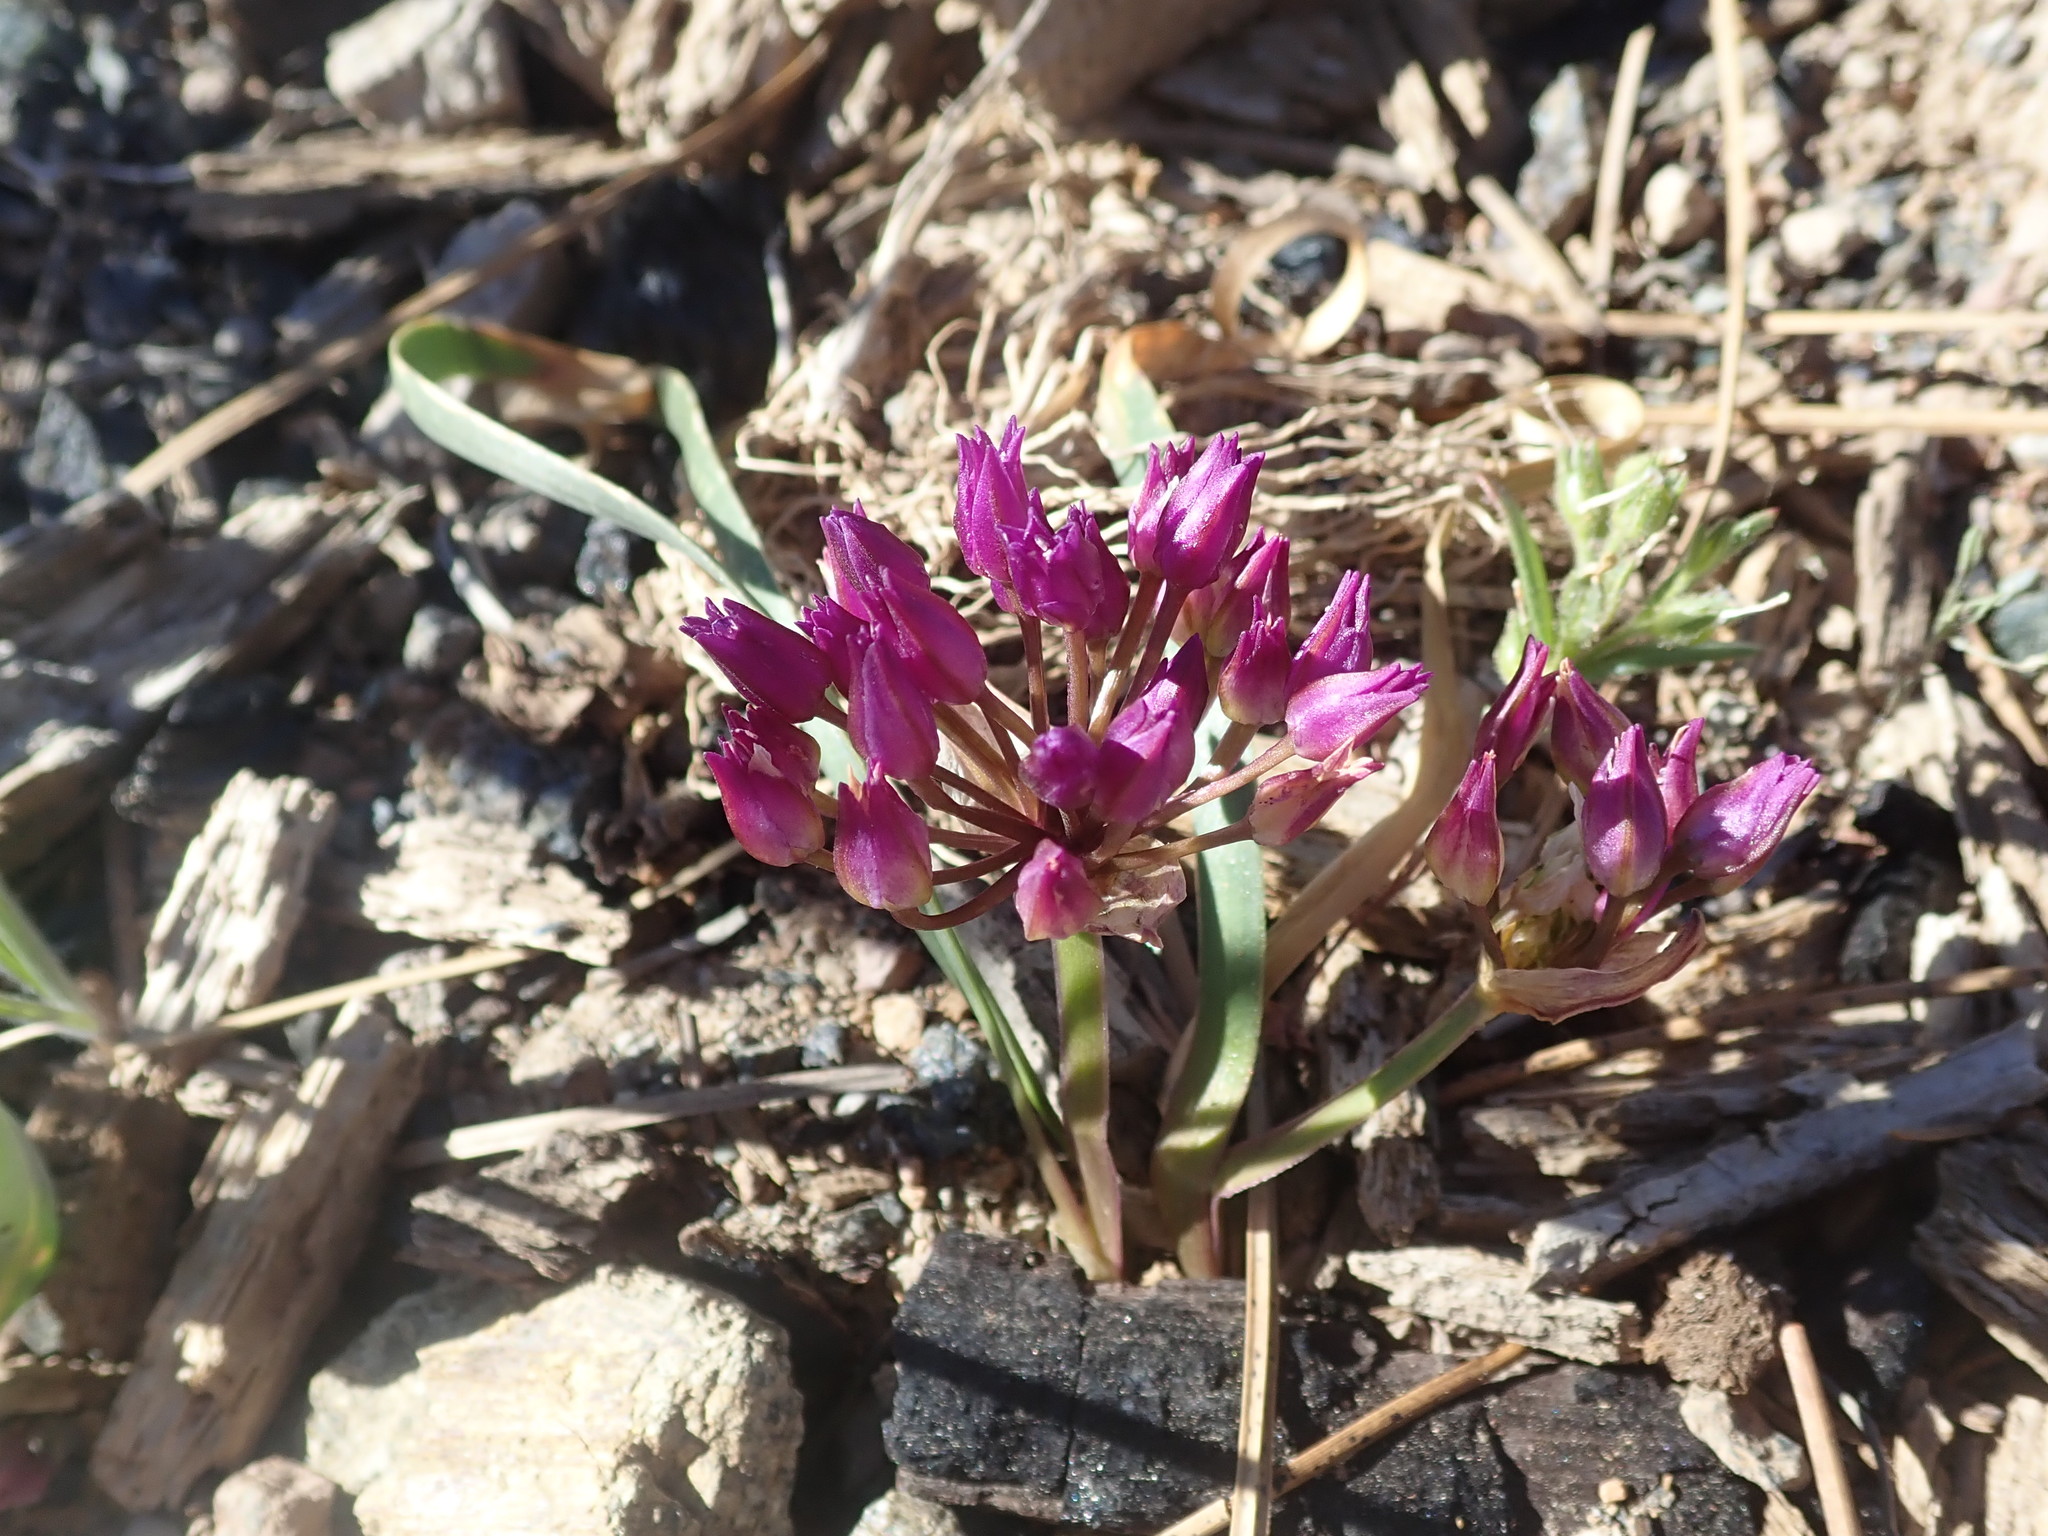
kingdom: Plantae
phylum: Tracheophyta
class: Liliopsida
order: Asparagales
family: Amaryllidaceae
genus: Allium
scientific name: Allium falcifolium
